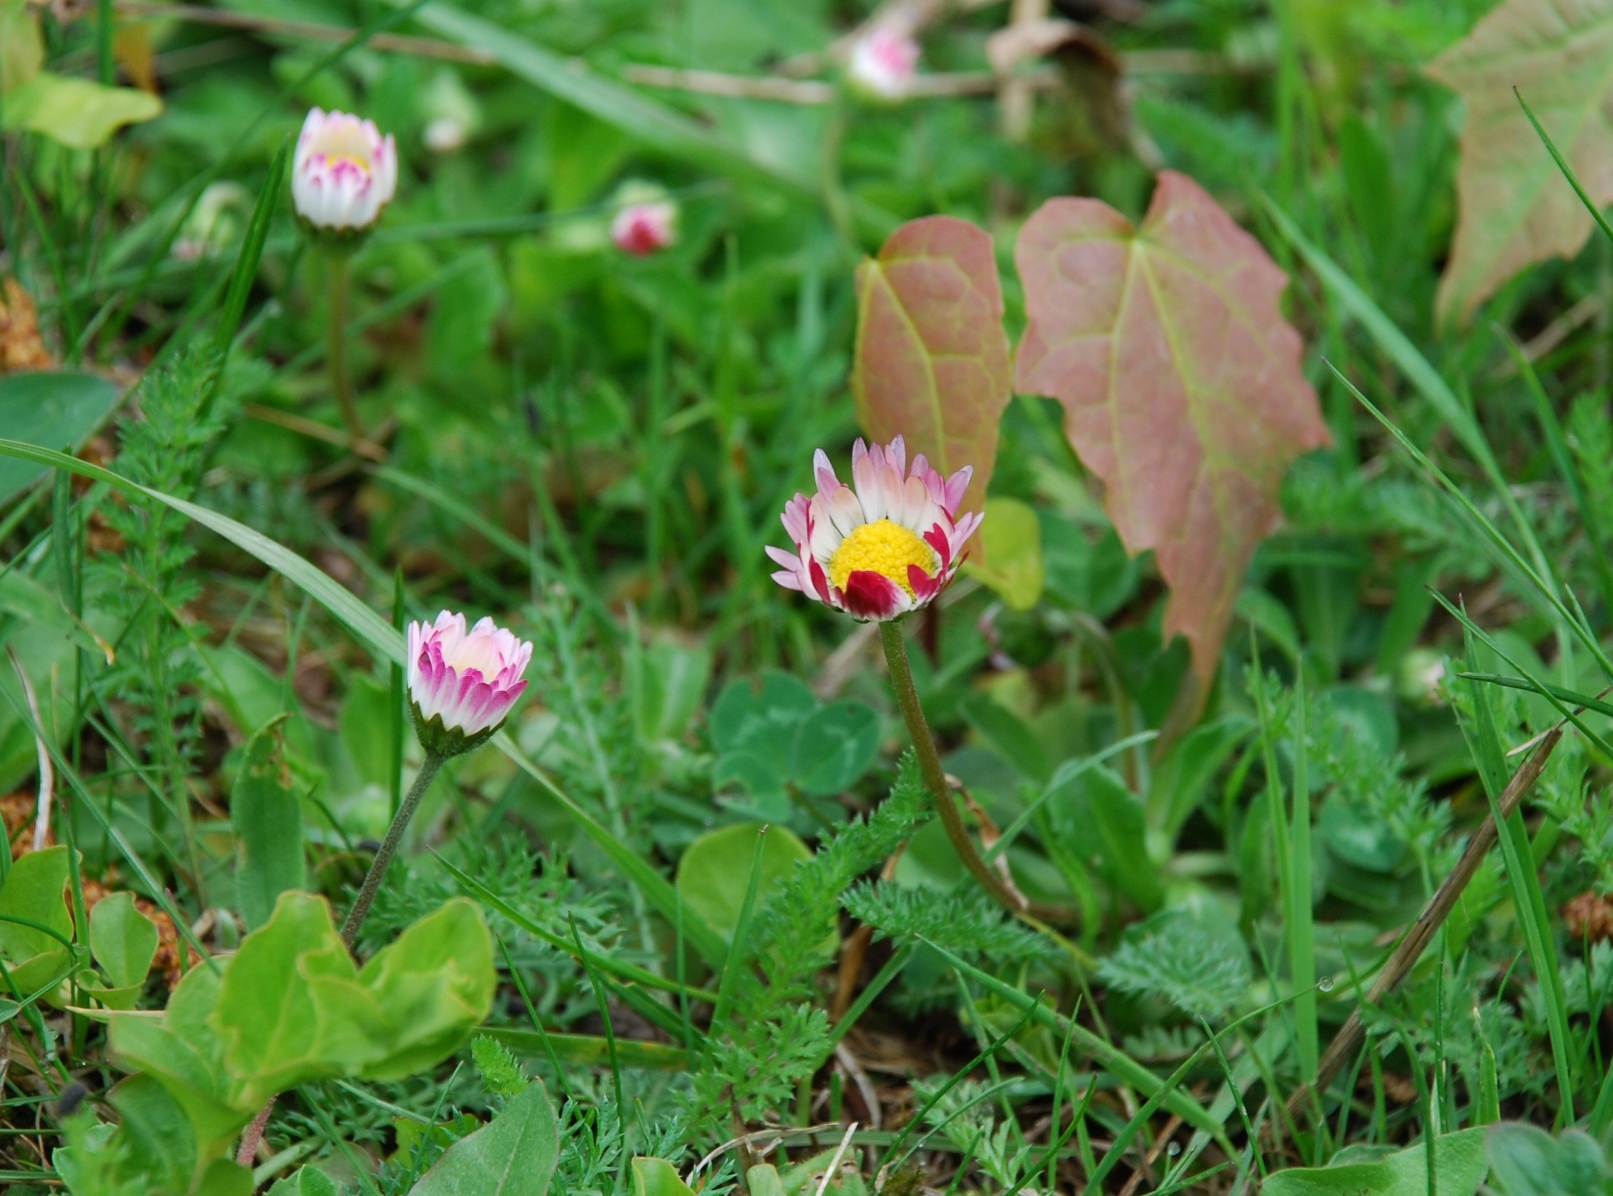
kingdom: Plantae
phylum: Tracheophyta
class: Magnoliopsida
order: Asterales
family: Asteraceae
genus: Bellis
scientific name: Bellis perennis
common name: Lawndaisy
